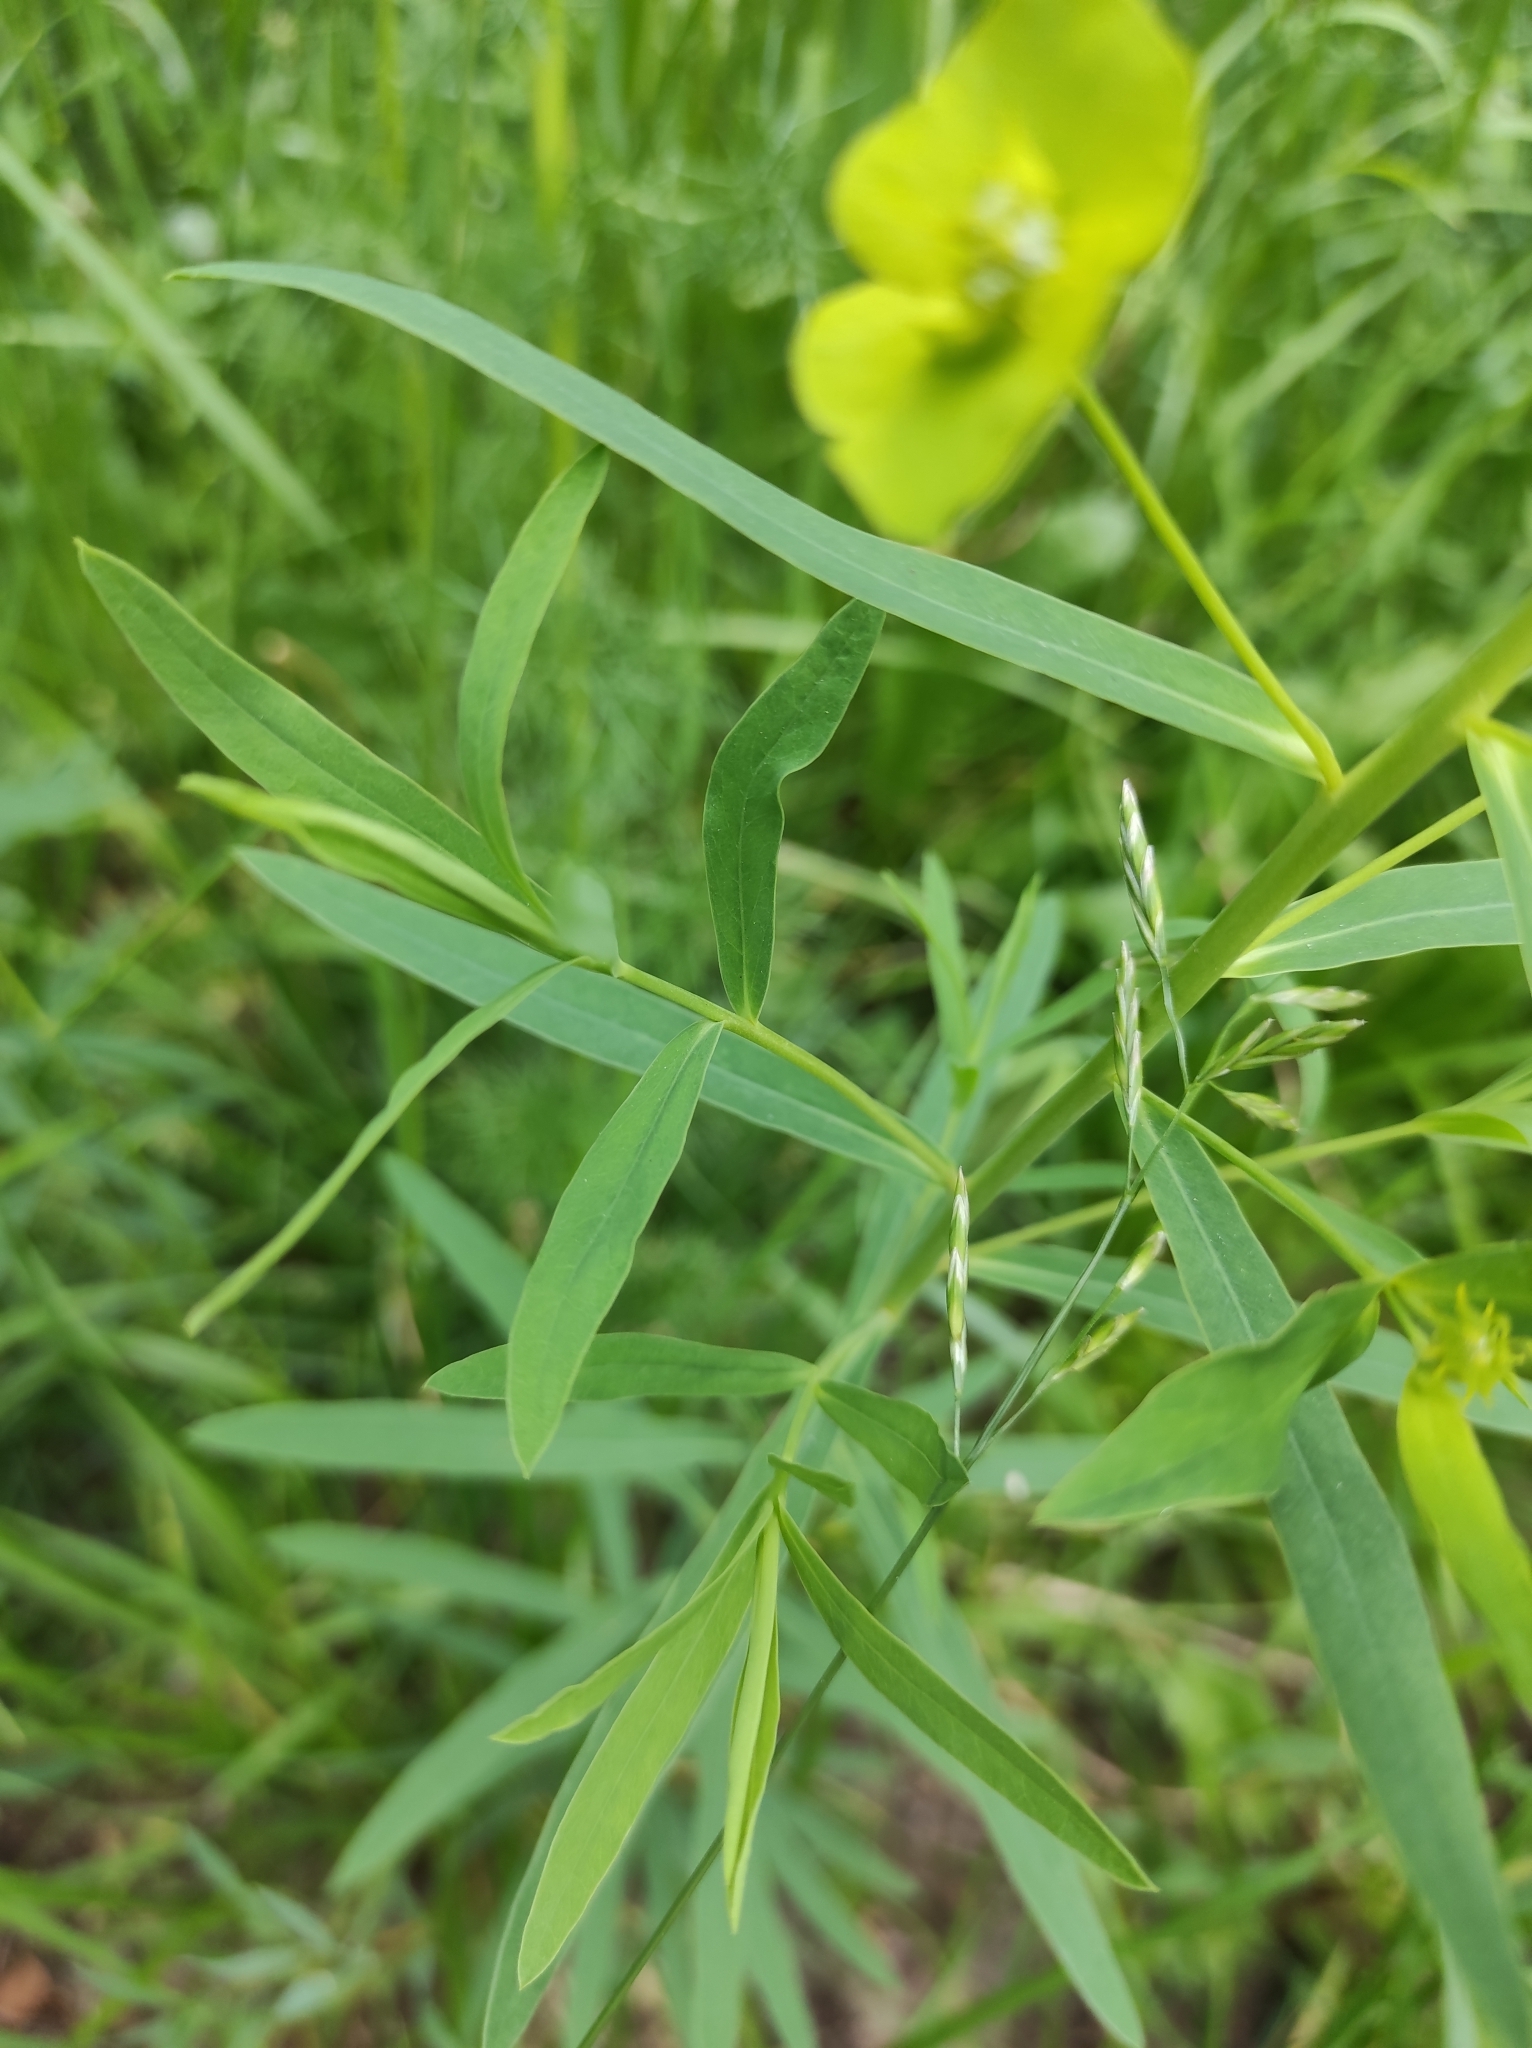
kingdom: Plantae
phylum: Tracheophyta
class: Magnoliopsida
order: Malpighiales
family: Euphorbiaceae
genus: Euphorbia
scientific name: Euphorbia virgata
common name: Leafy spurge
